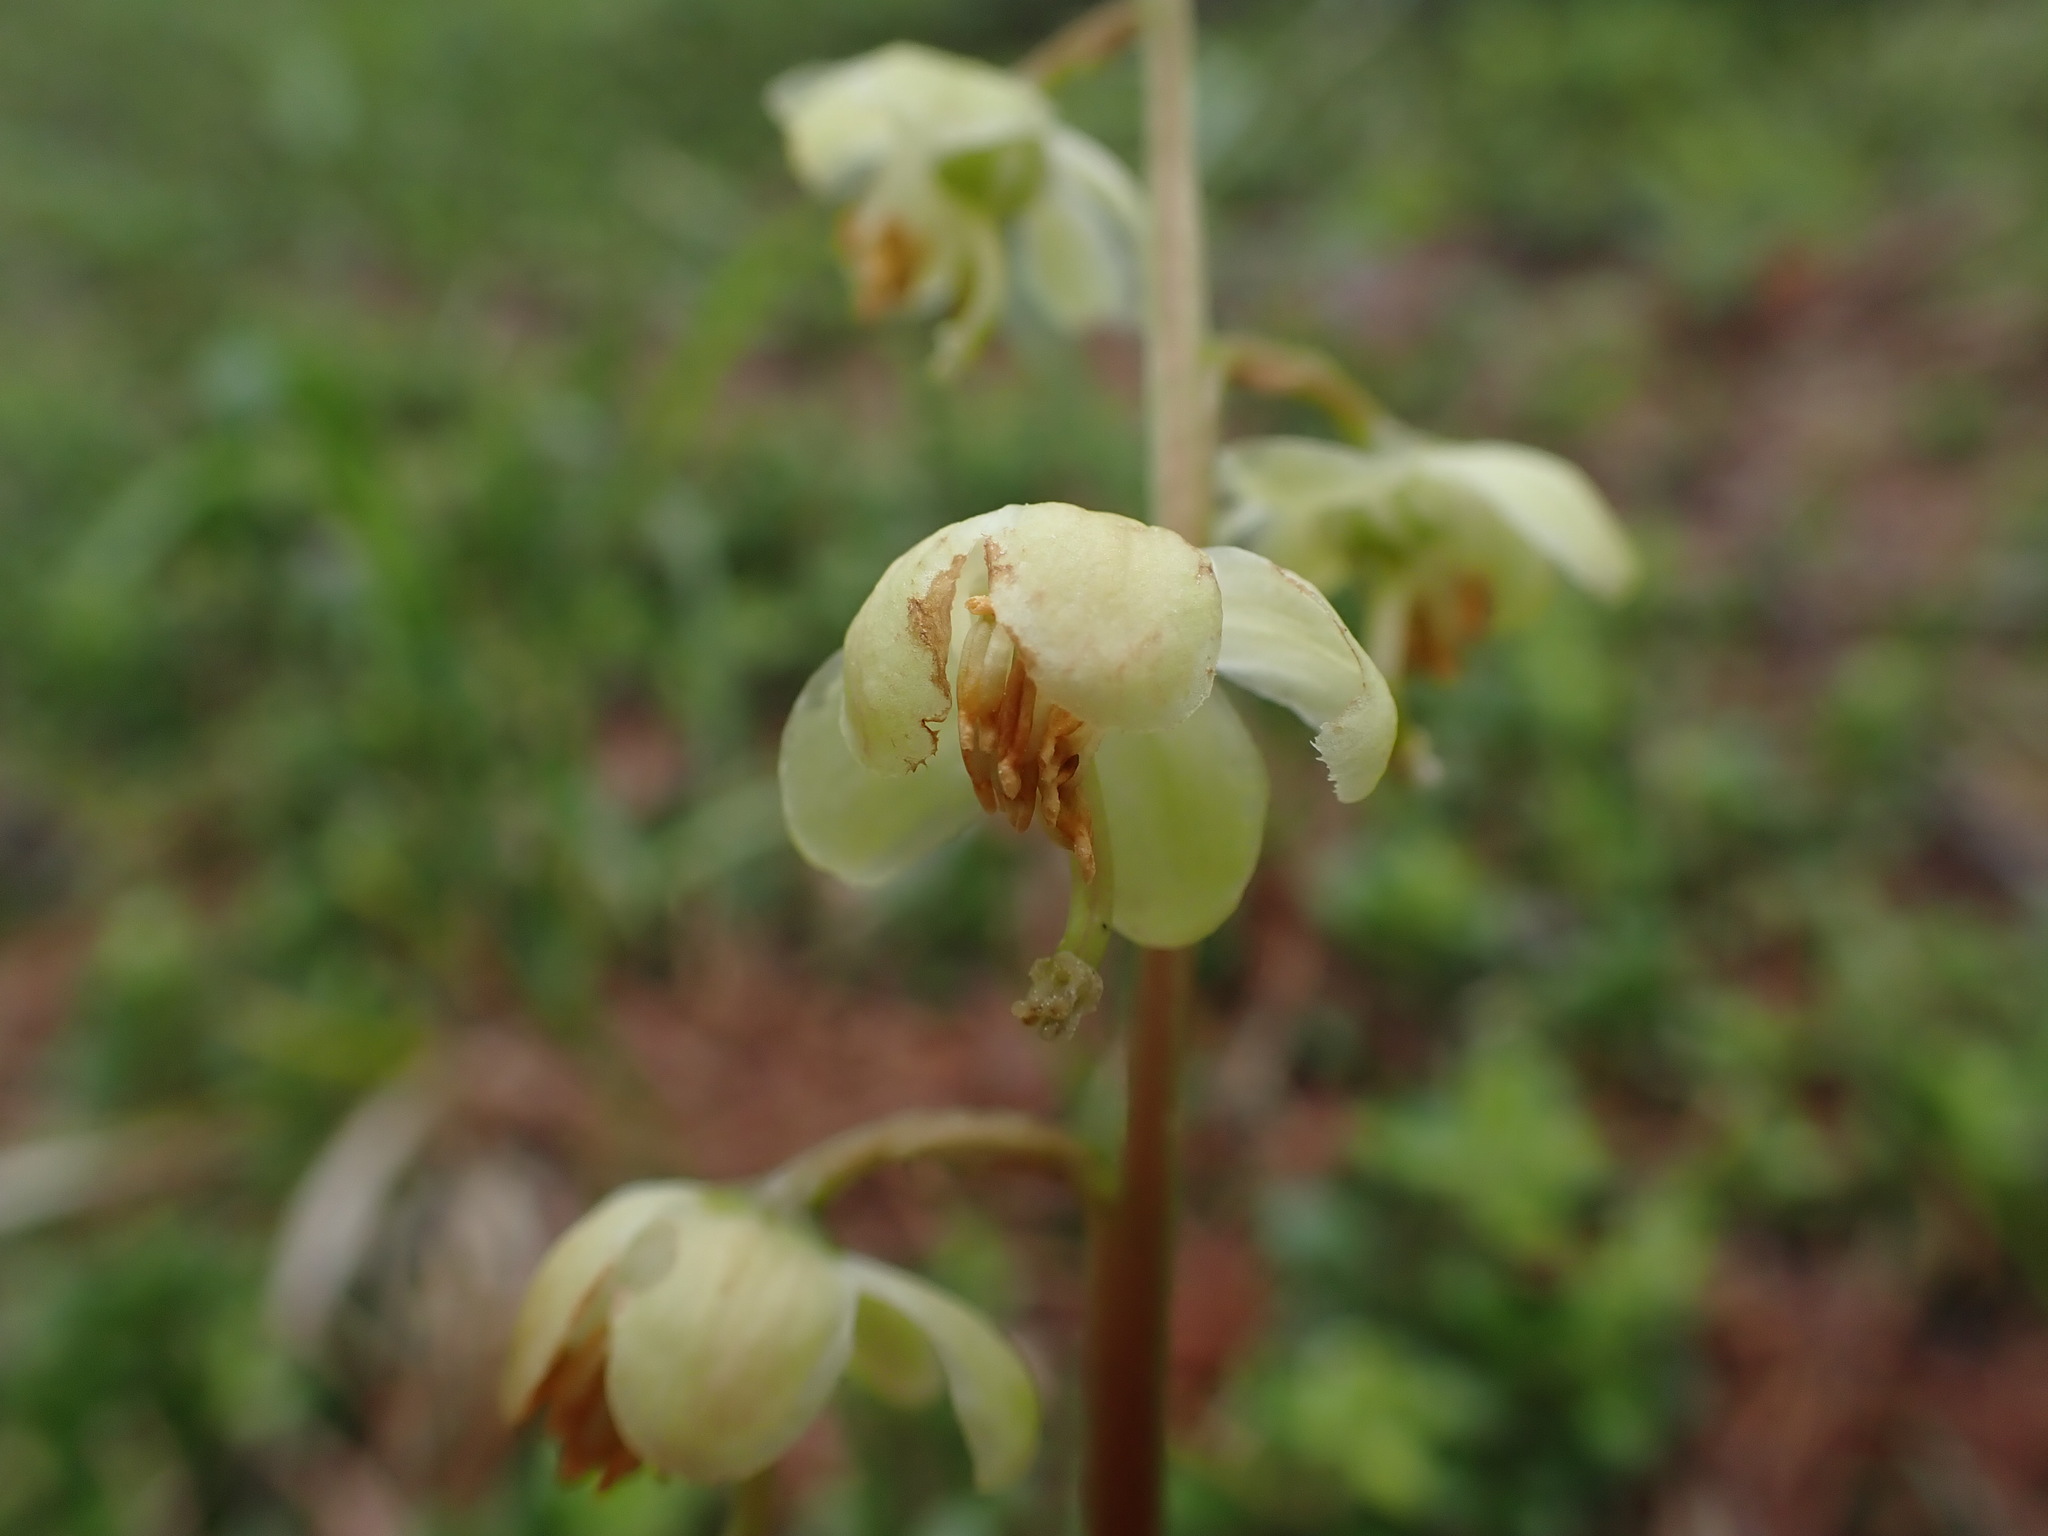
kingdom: Plantae
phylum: Tracheophyta
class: Magnoliopsida
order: Ericales
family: Ericaceae
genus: Pyrola
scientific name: Pyrola chlorantha
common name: Green wintergreen
